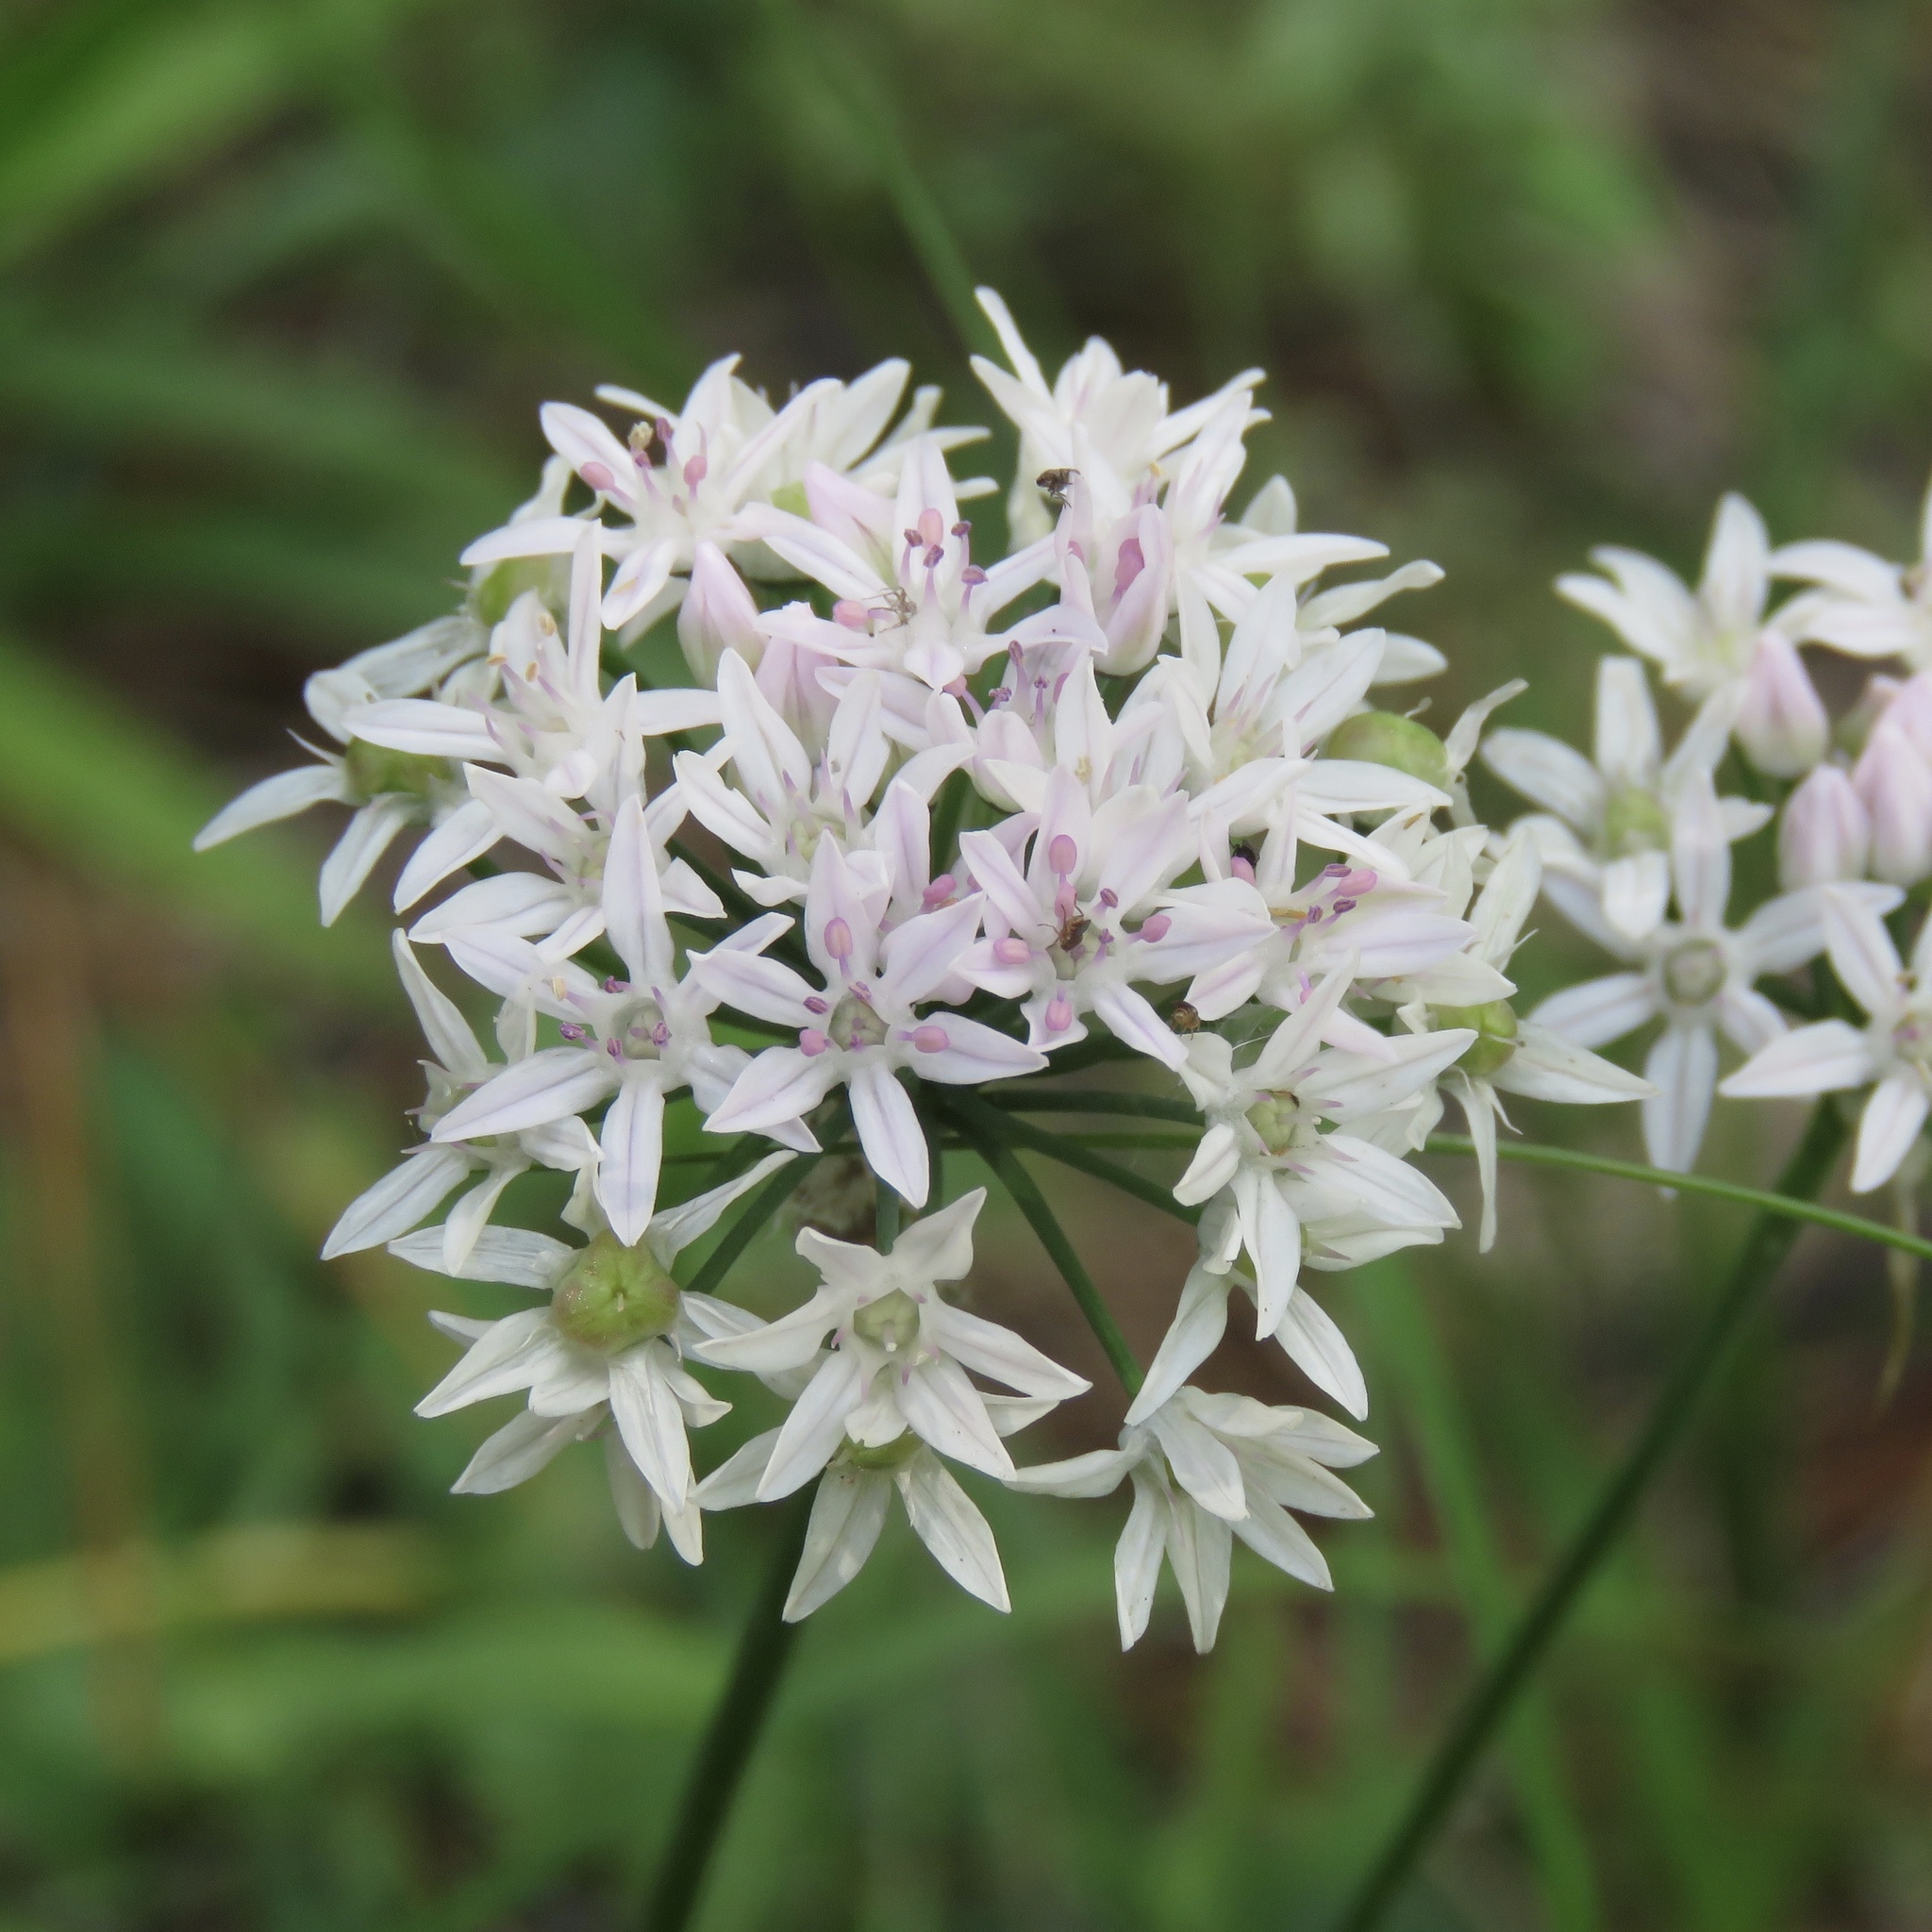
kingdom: Plantae
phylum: Tracheophyta
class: Liliopsida
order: Asparagales
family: Amaryllidaceae
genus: Allium
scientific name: Allium canadense
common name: Meadow garlic
